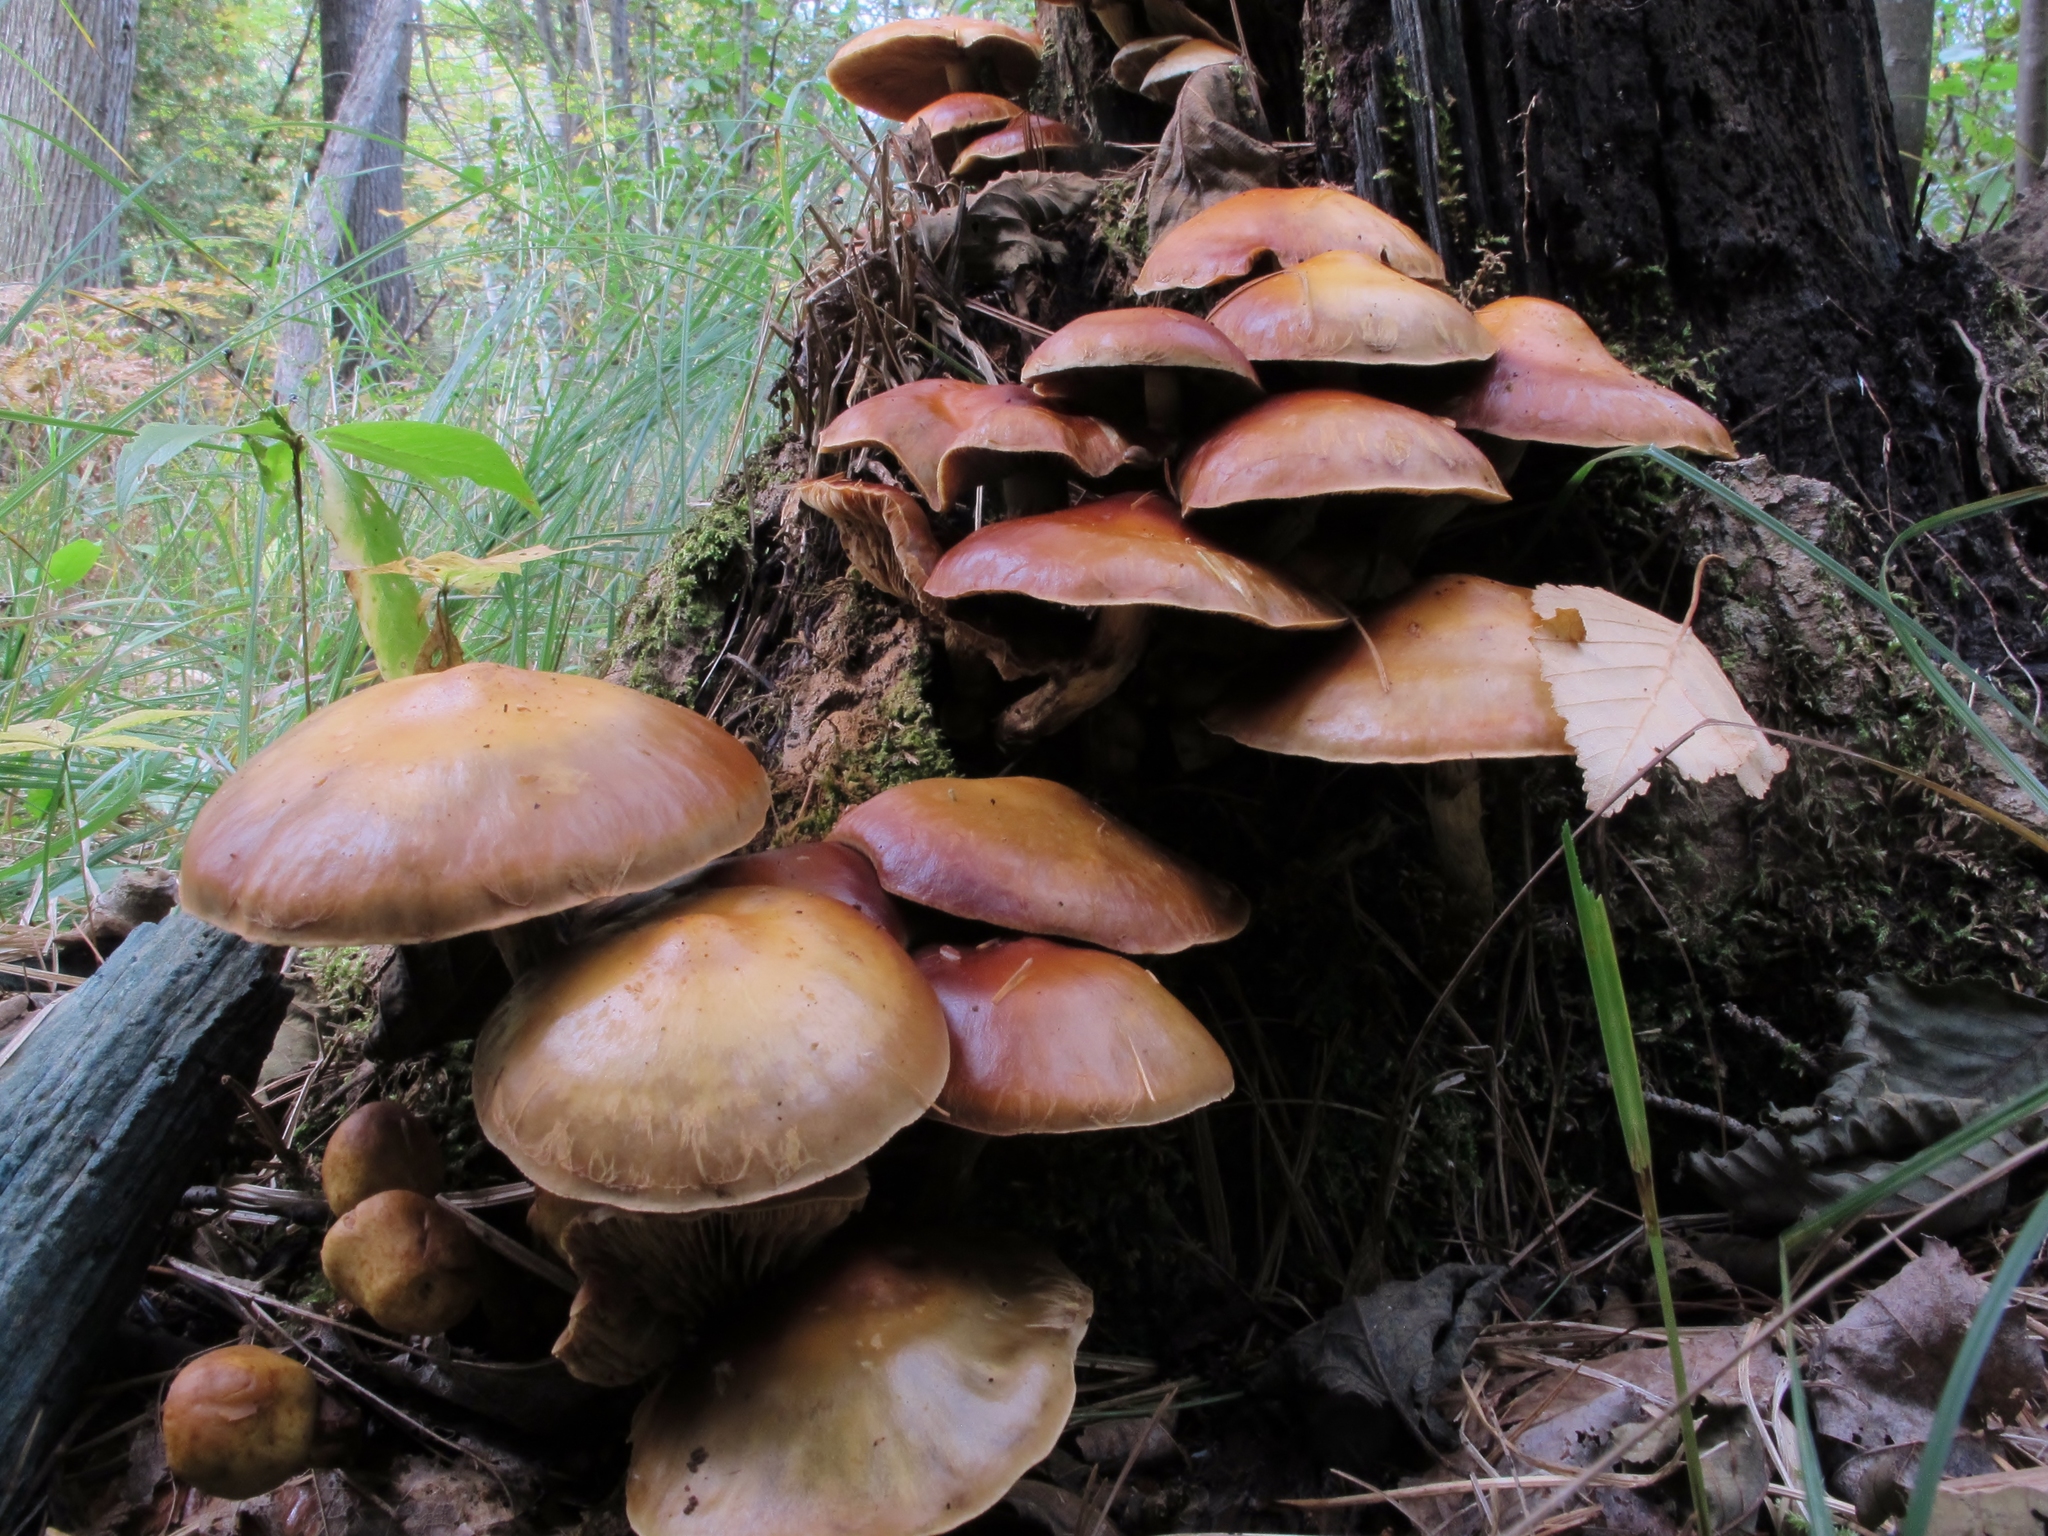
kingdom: Fungi
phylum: Basidiomycota
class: Agaricomycetes
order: Agaricales
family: Hymenogastraceae
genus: Flammula
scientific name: Flammula alnicola
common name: Alder scalycap
